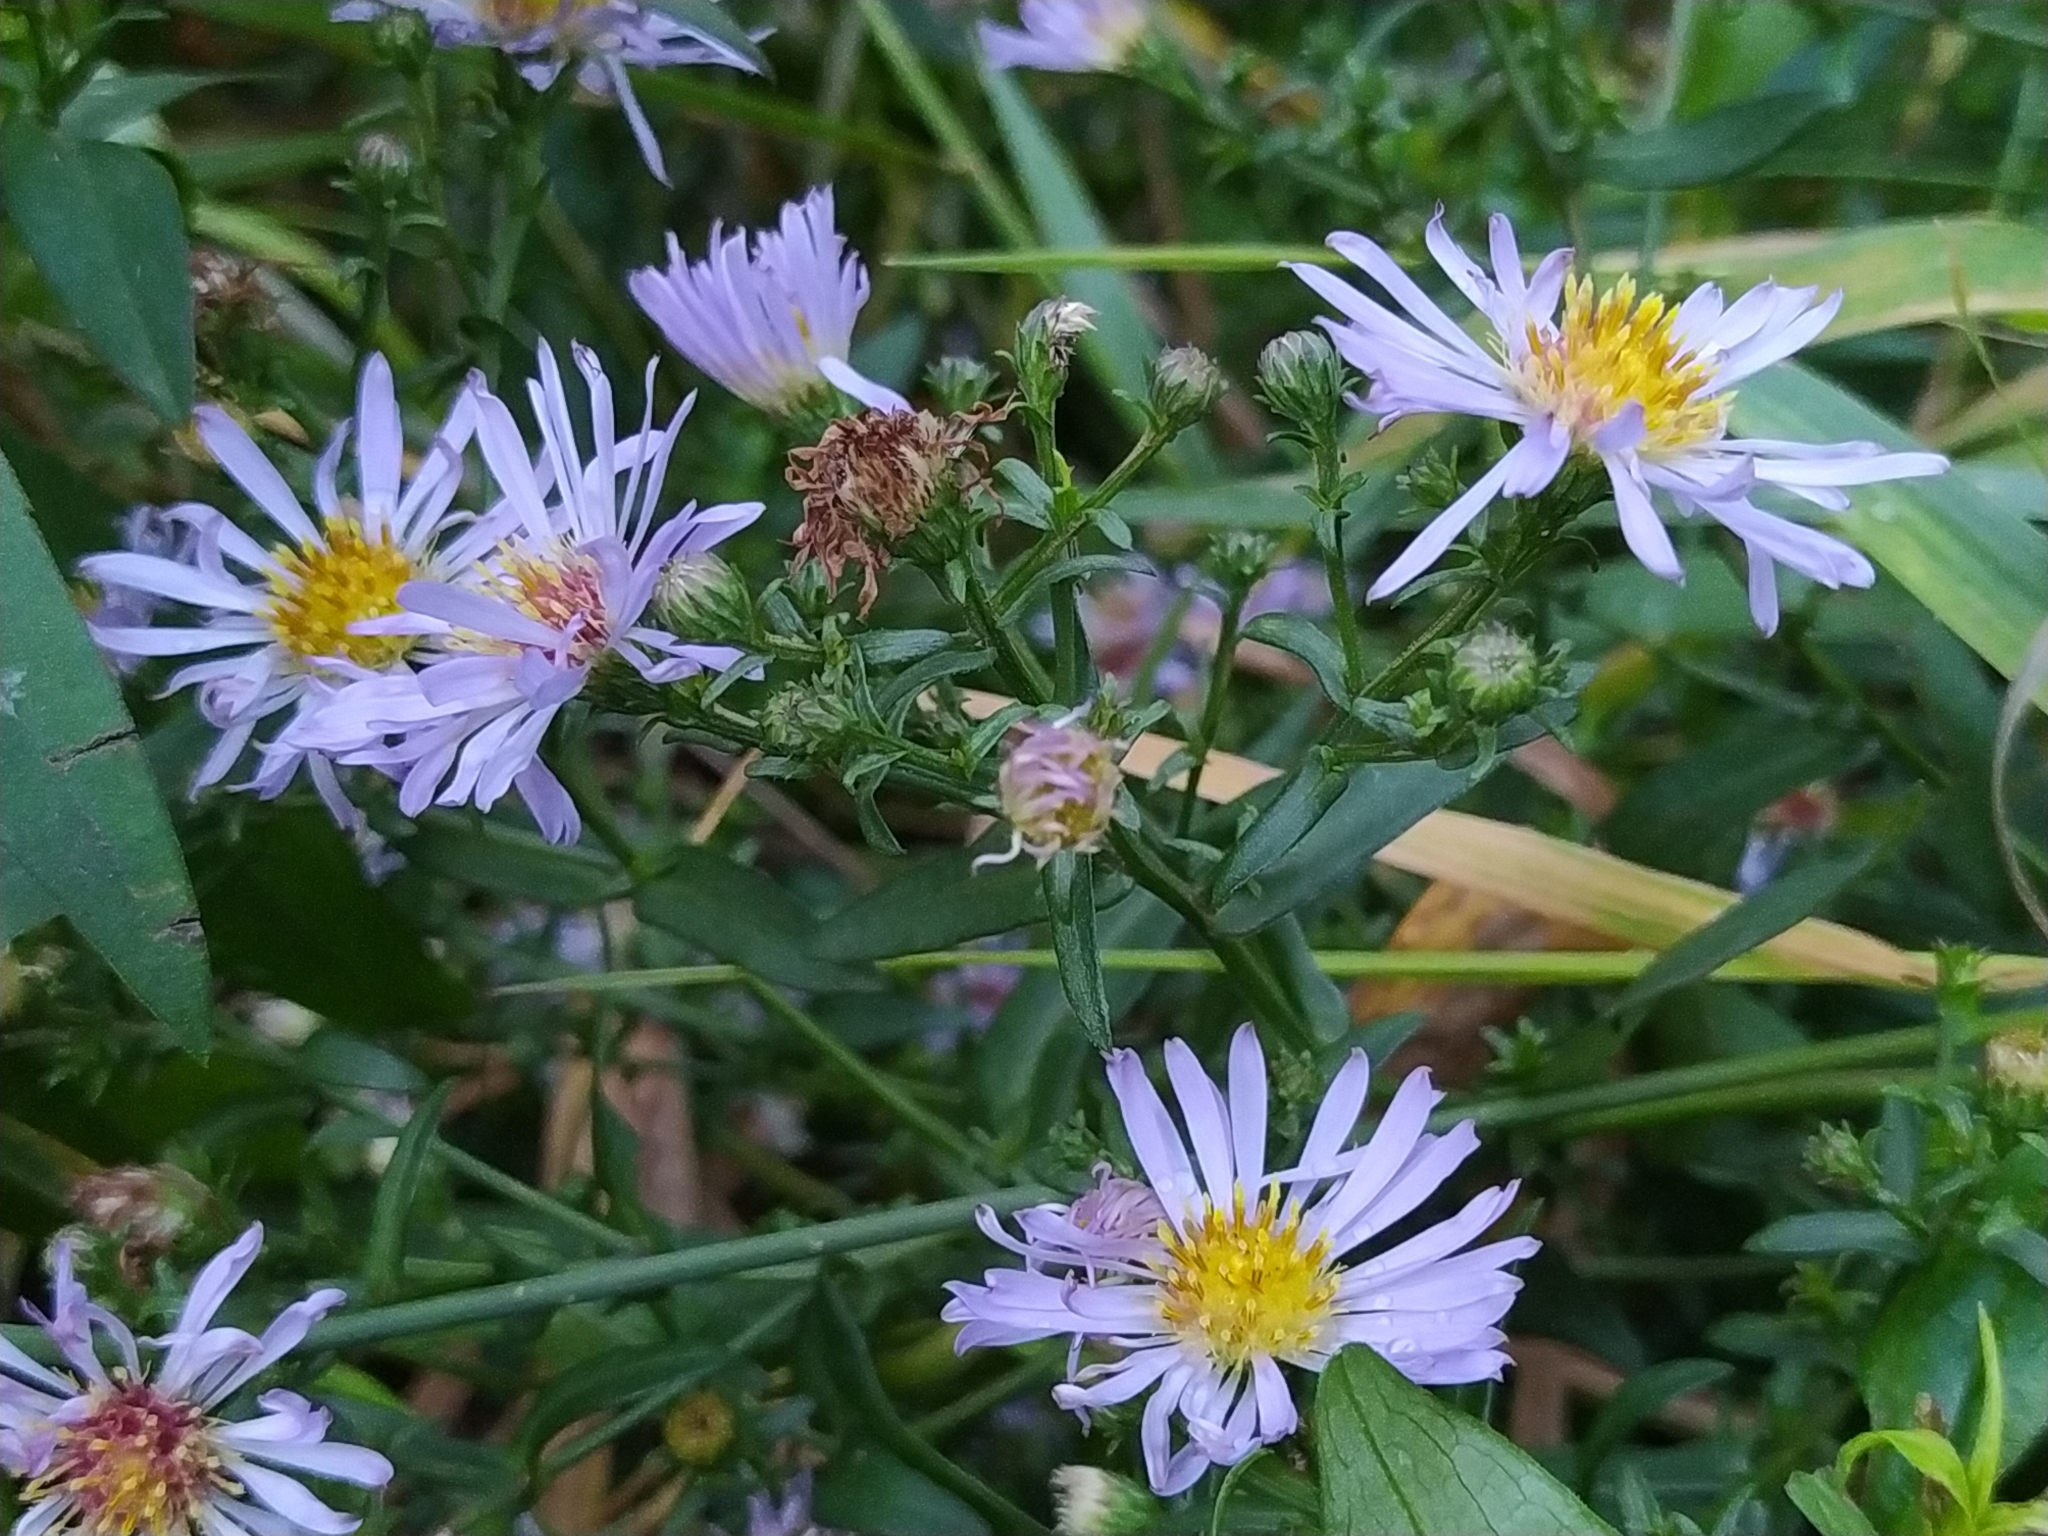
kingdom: Plantae
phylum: Tracheophyta
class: Magnoliopsida
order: Asterales
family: Asteraceae
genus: Symphyotrichum
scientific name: Symphyotrichum novi-belgii
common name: Michaelmas daisy
